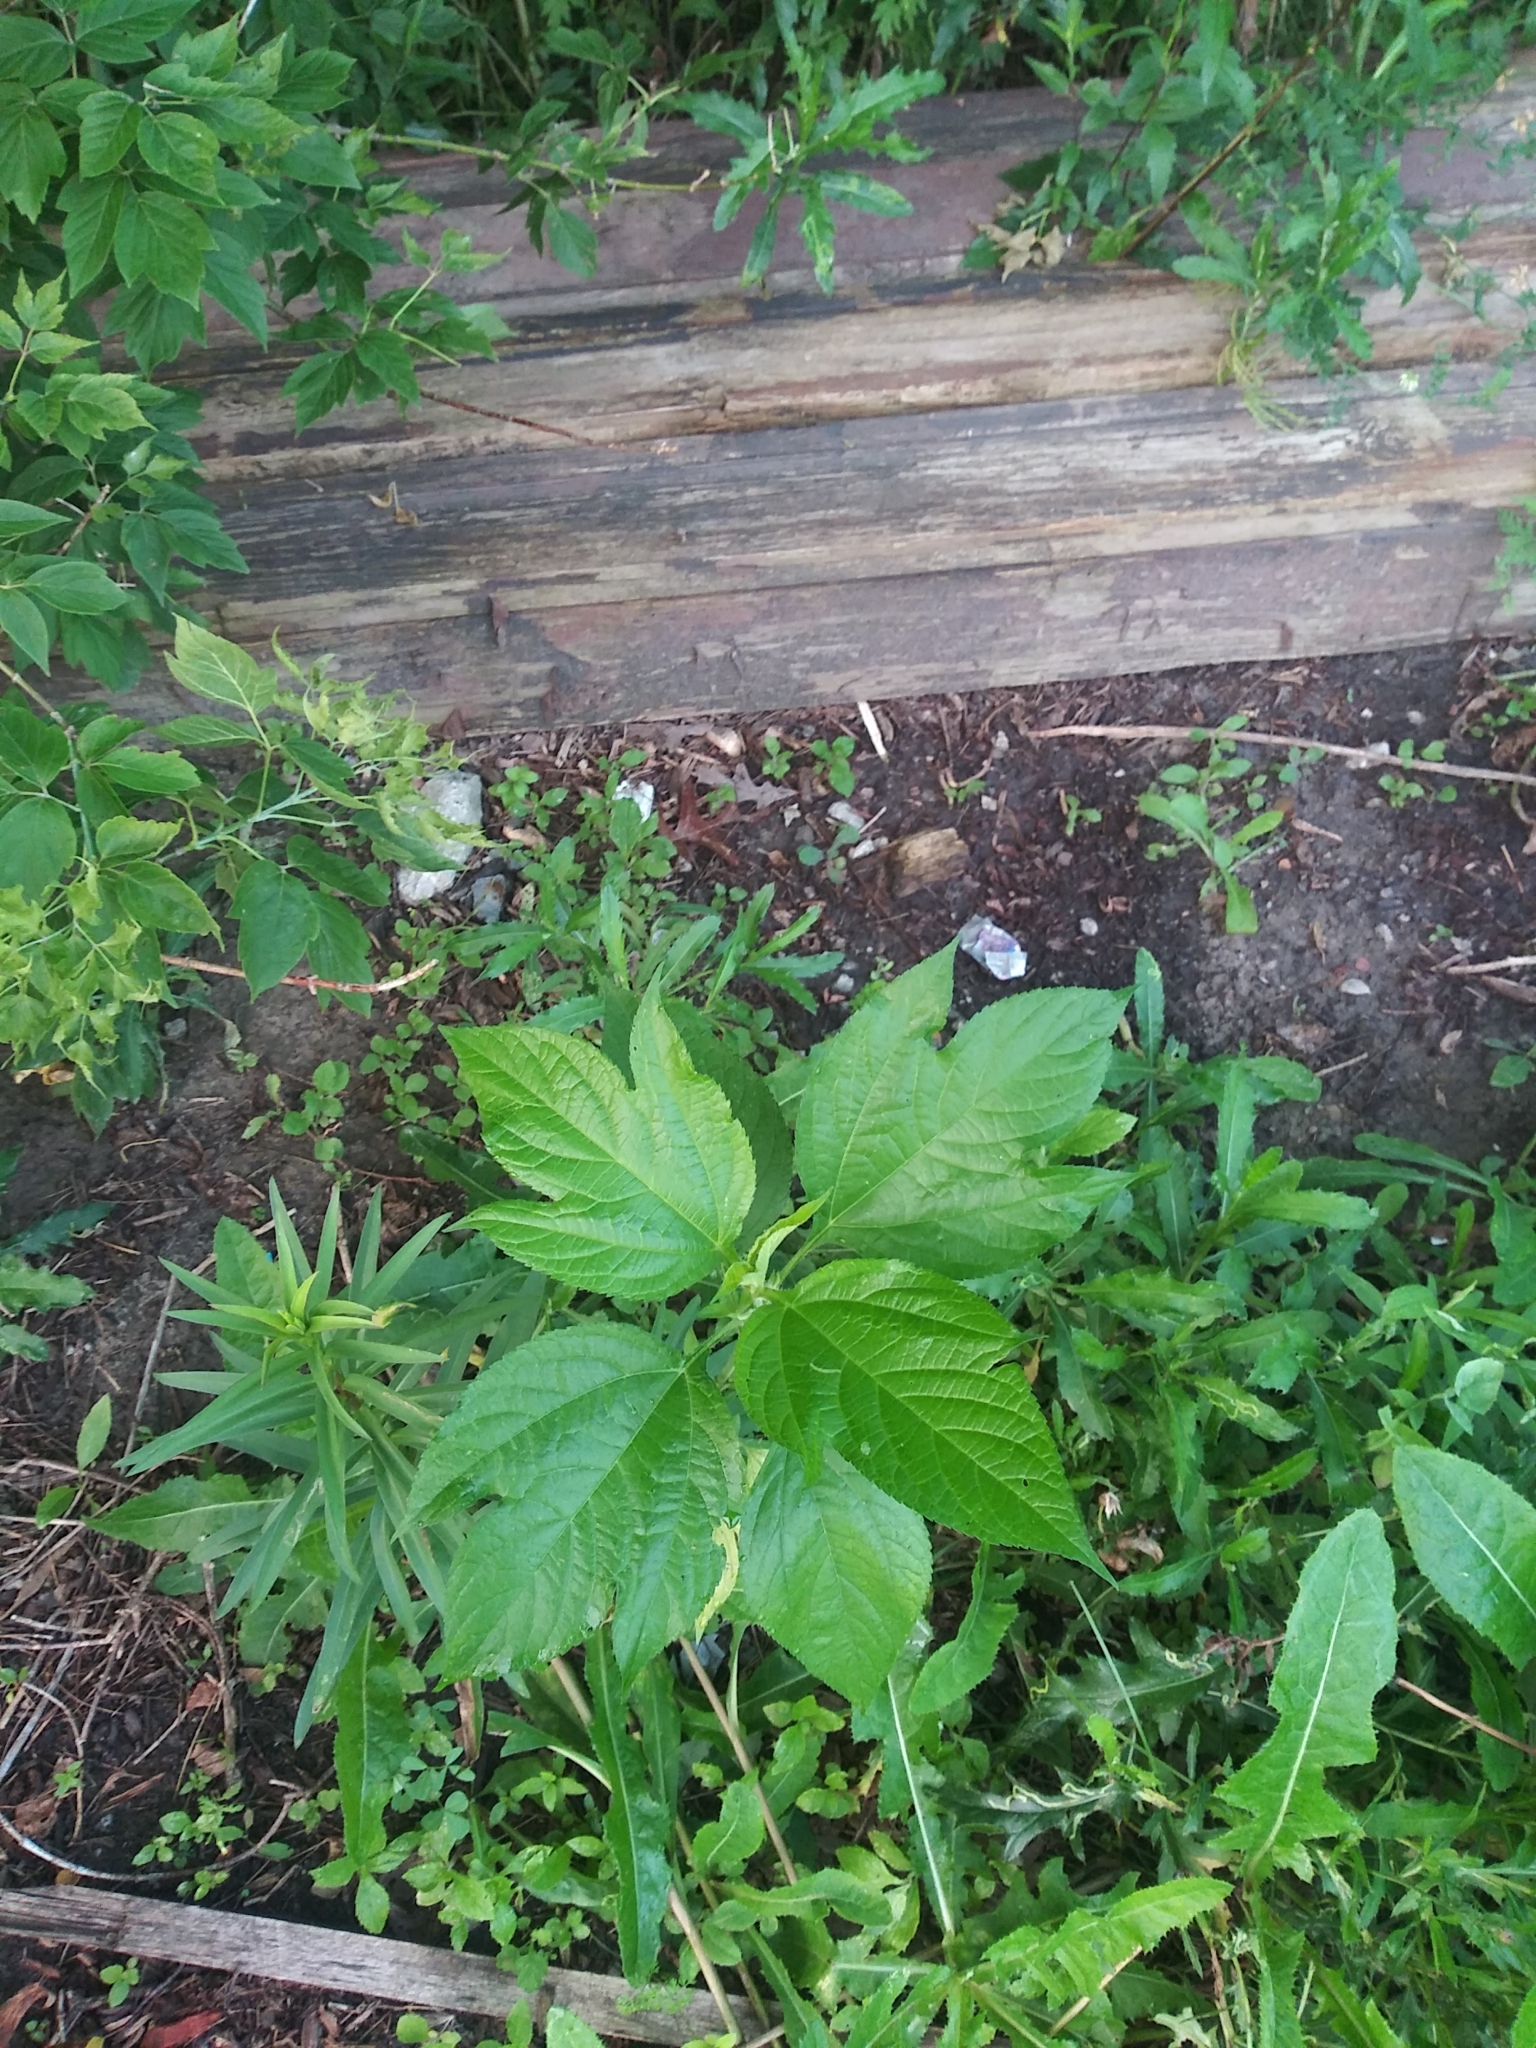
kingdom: Plantae
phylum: Tracheophyta
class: Magnoliopsida
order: Asterales
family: Asteraceae
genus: Ambrosia
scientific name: Ambrosia trifida
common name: Giant ragweed
